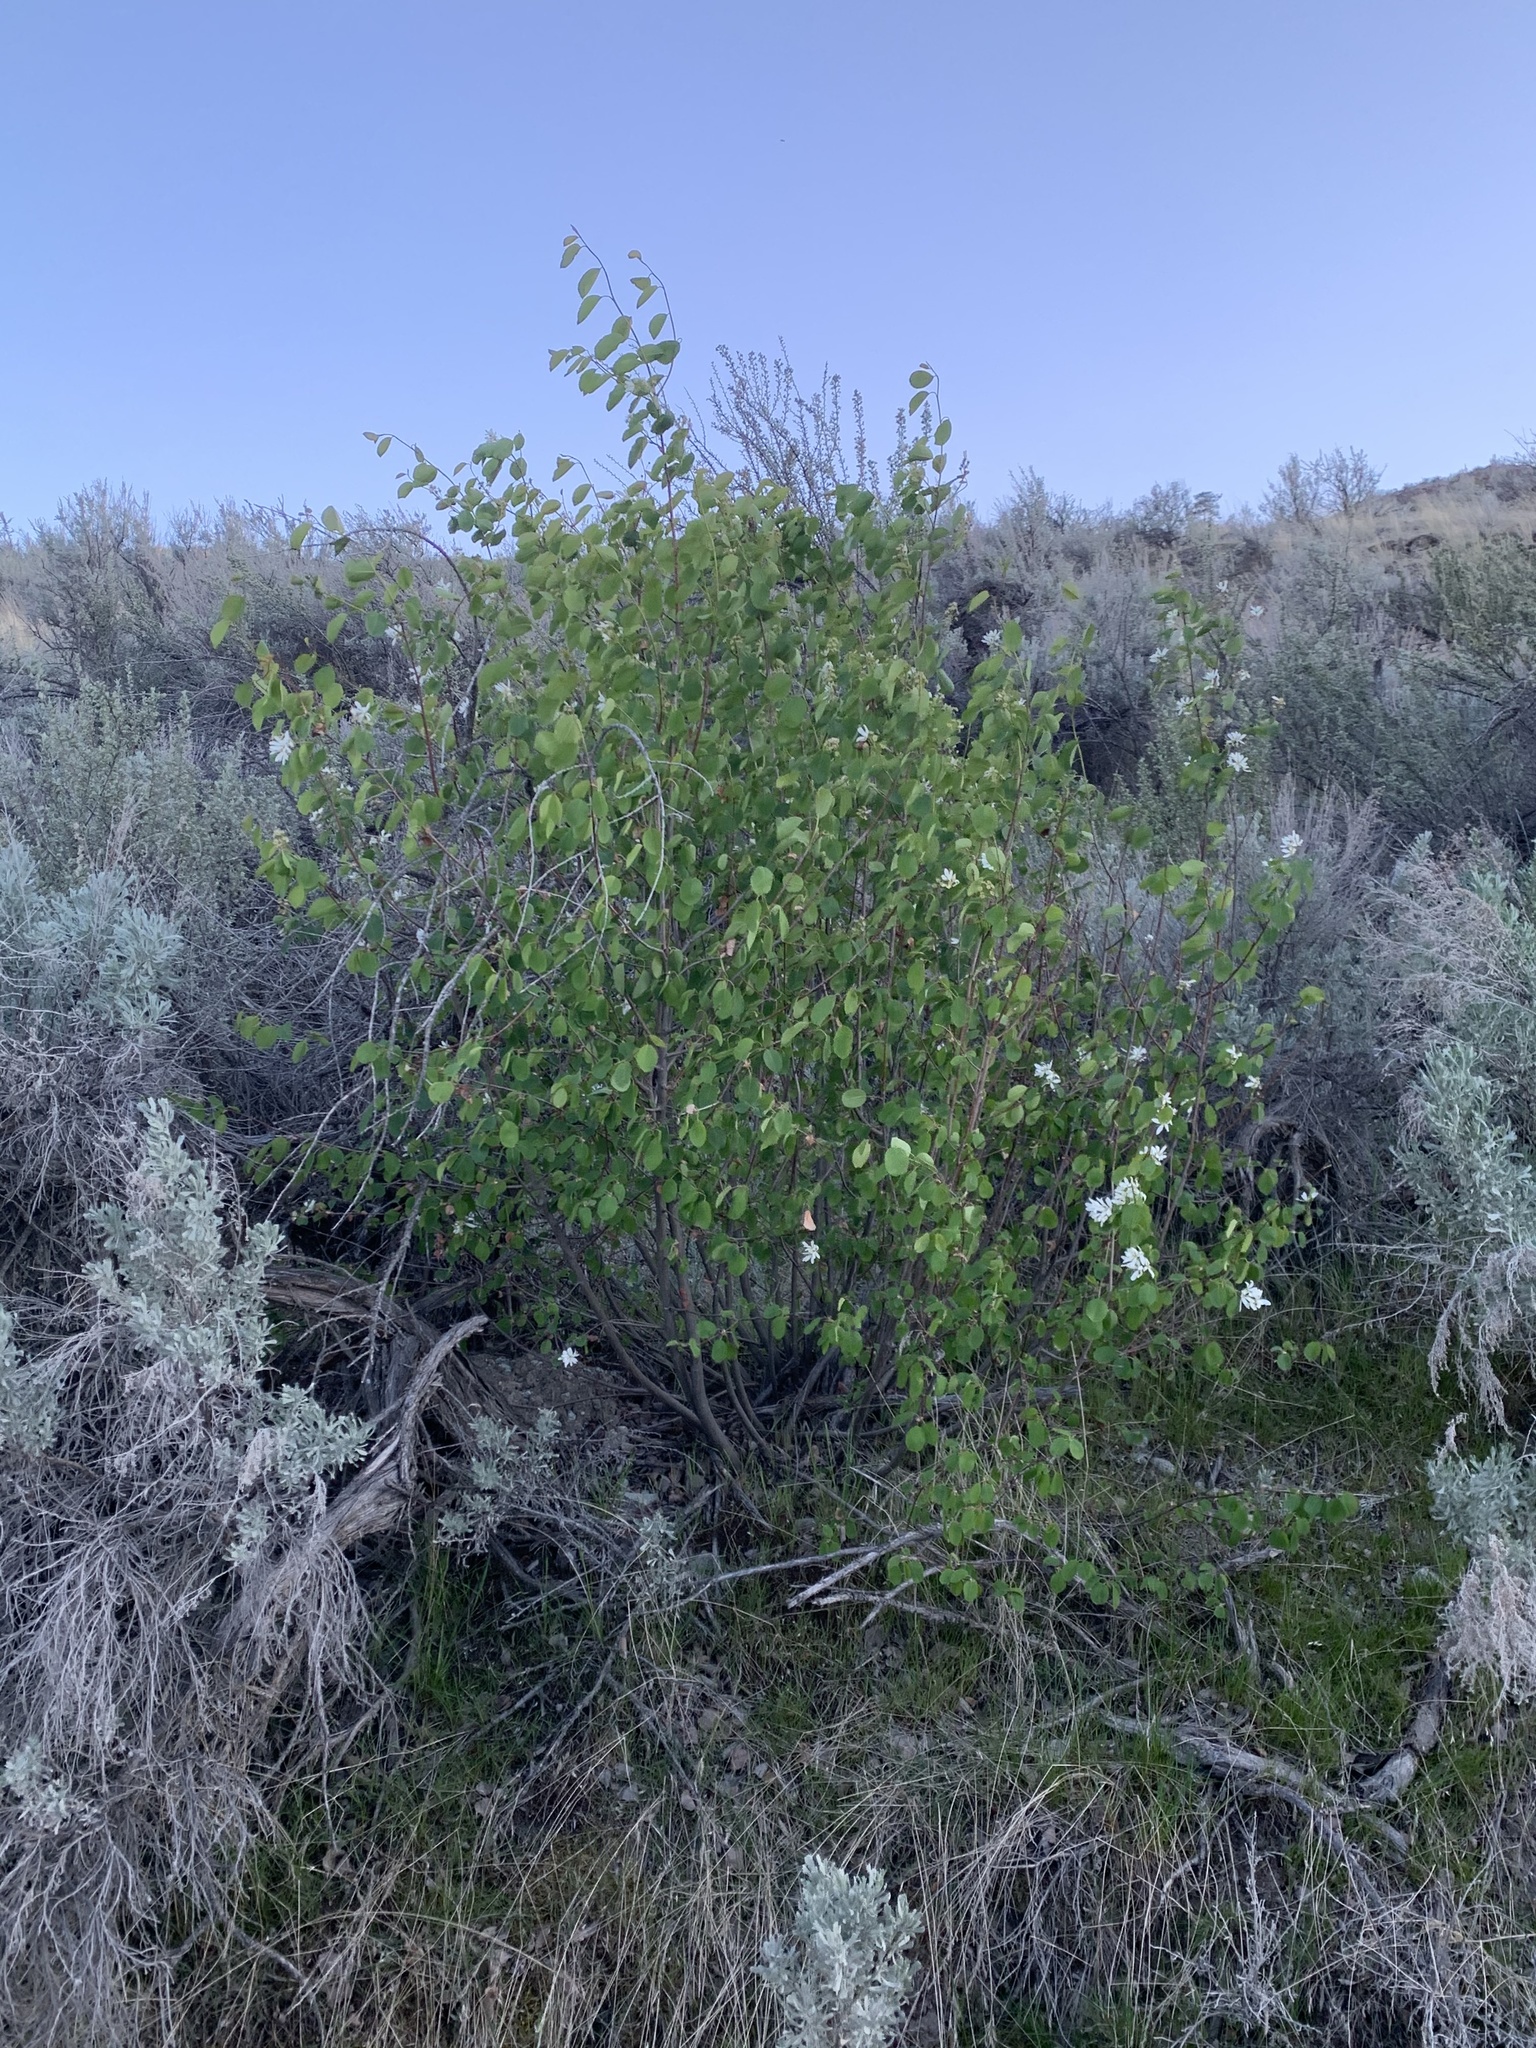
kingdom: Plantae
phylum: Tracheophyta
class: Magnoliopsida
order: Rosales
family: Rosaceae
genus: Amelanchier
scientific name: Amelanchier alnifolia
